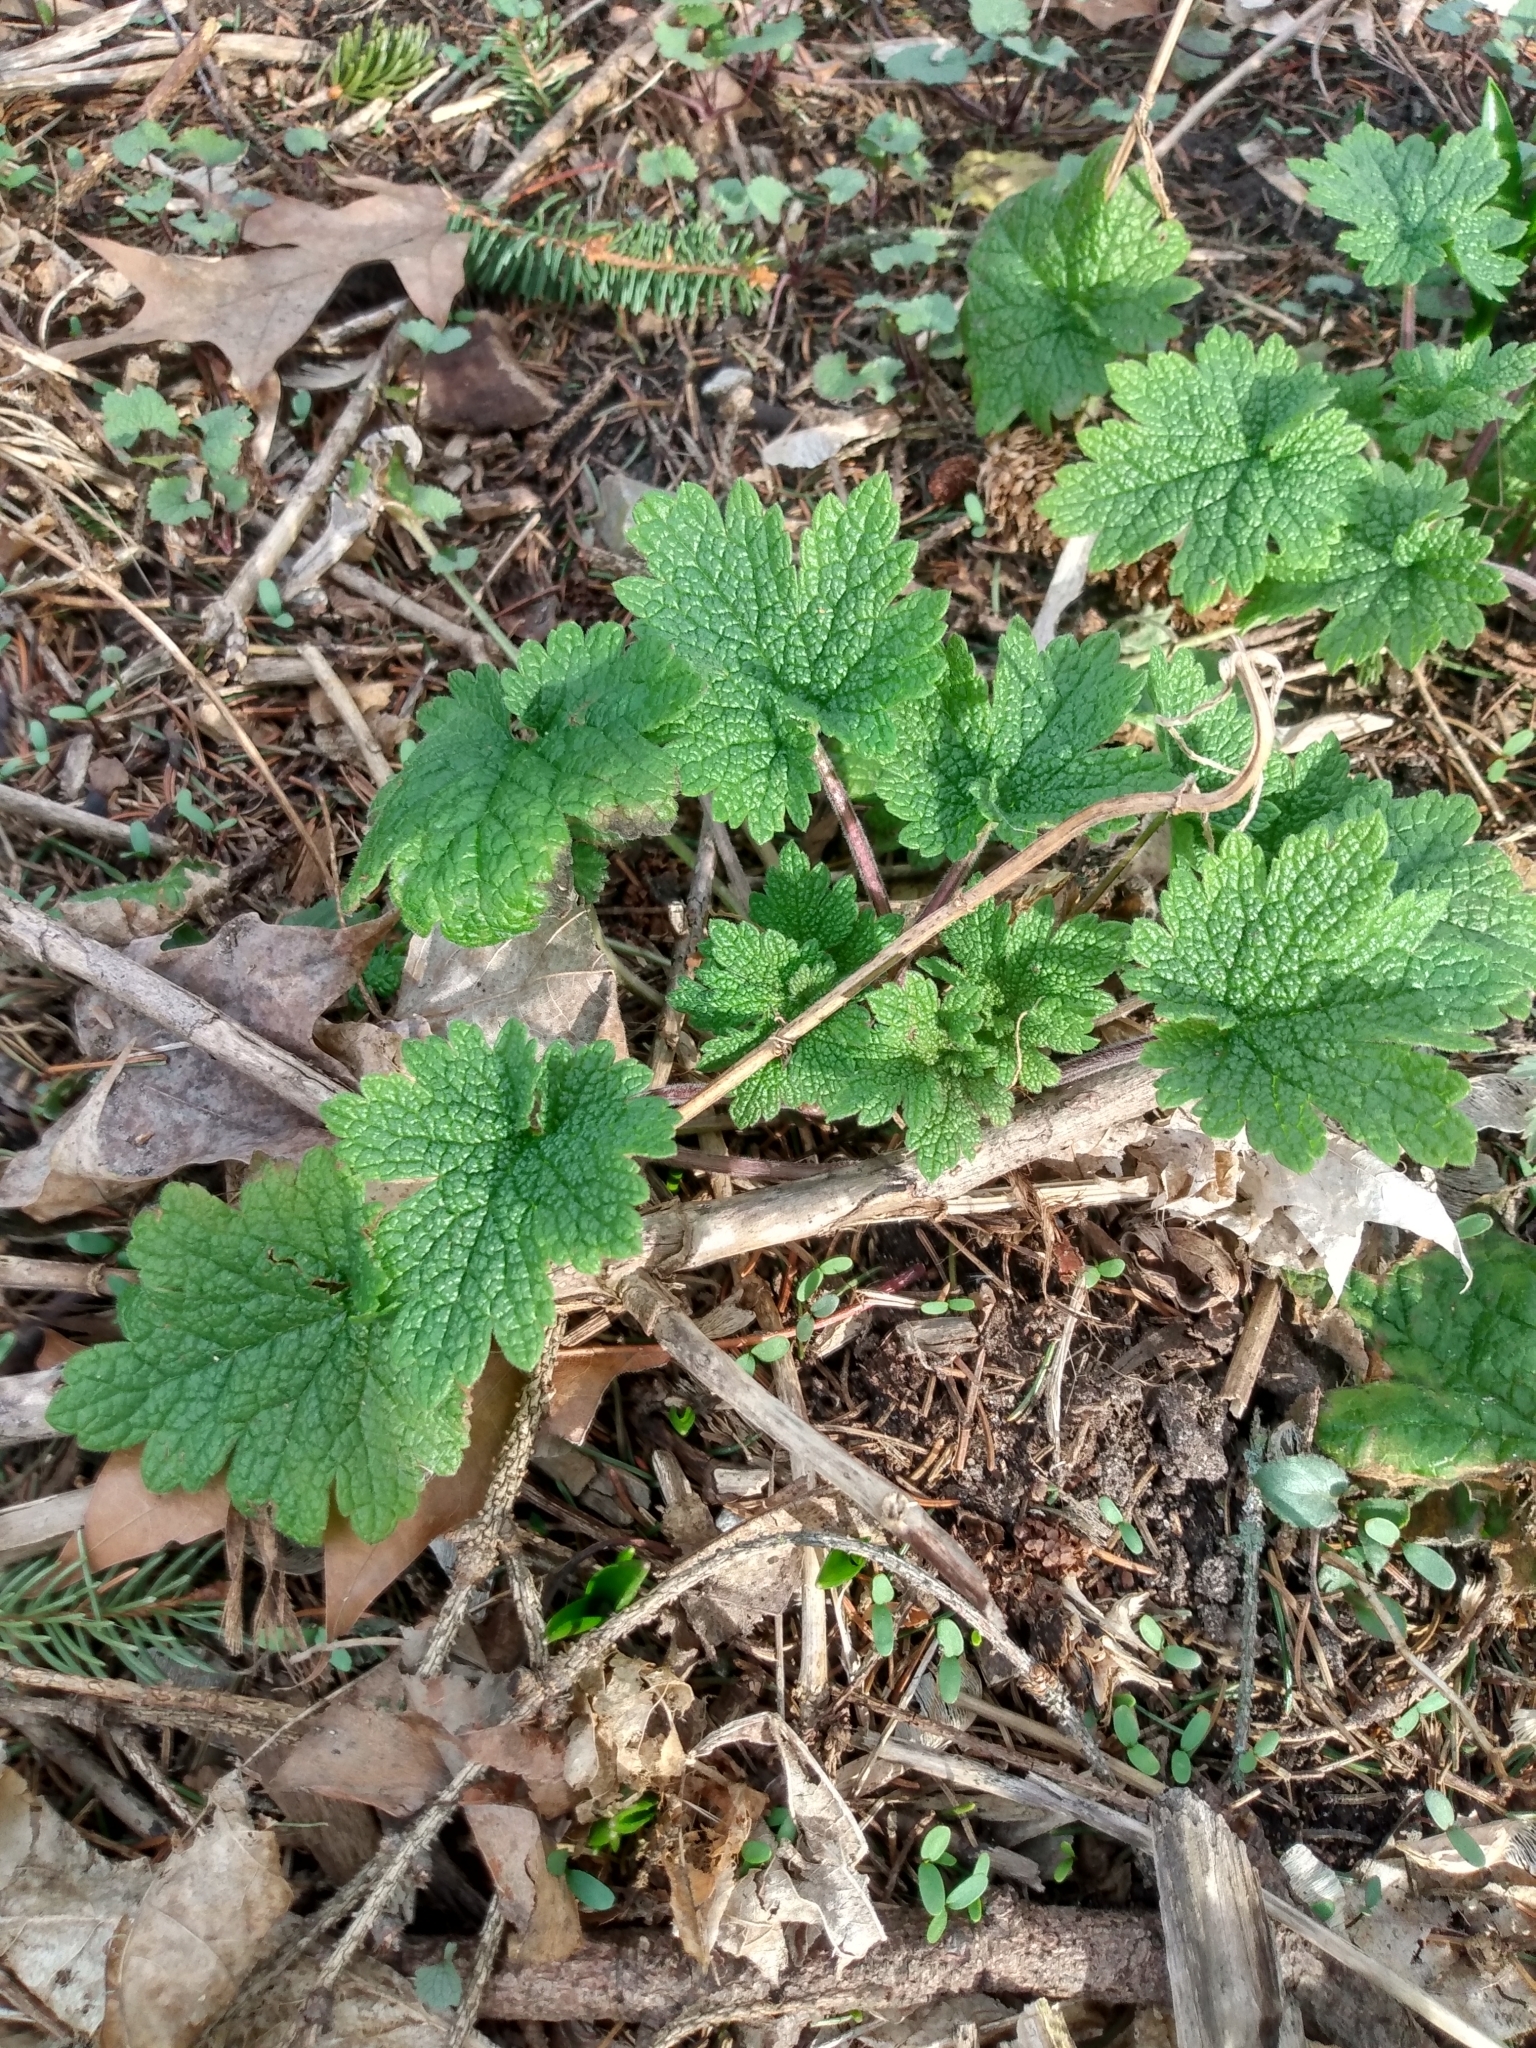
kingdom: Plantae
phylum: Tracheophyta
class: Magnoliopsida
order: Lamiales
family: Lamiaceae
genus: Leonurus
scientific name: Leonurus cardiaca
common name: Motherwort
